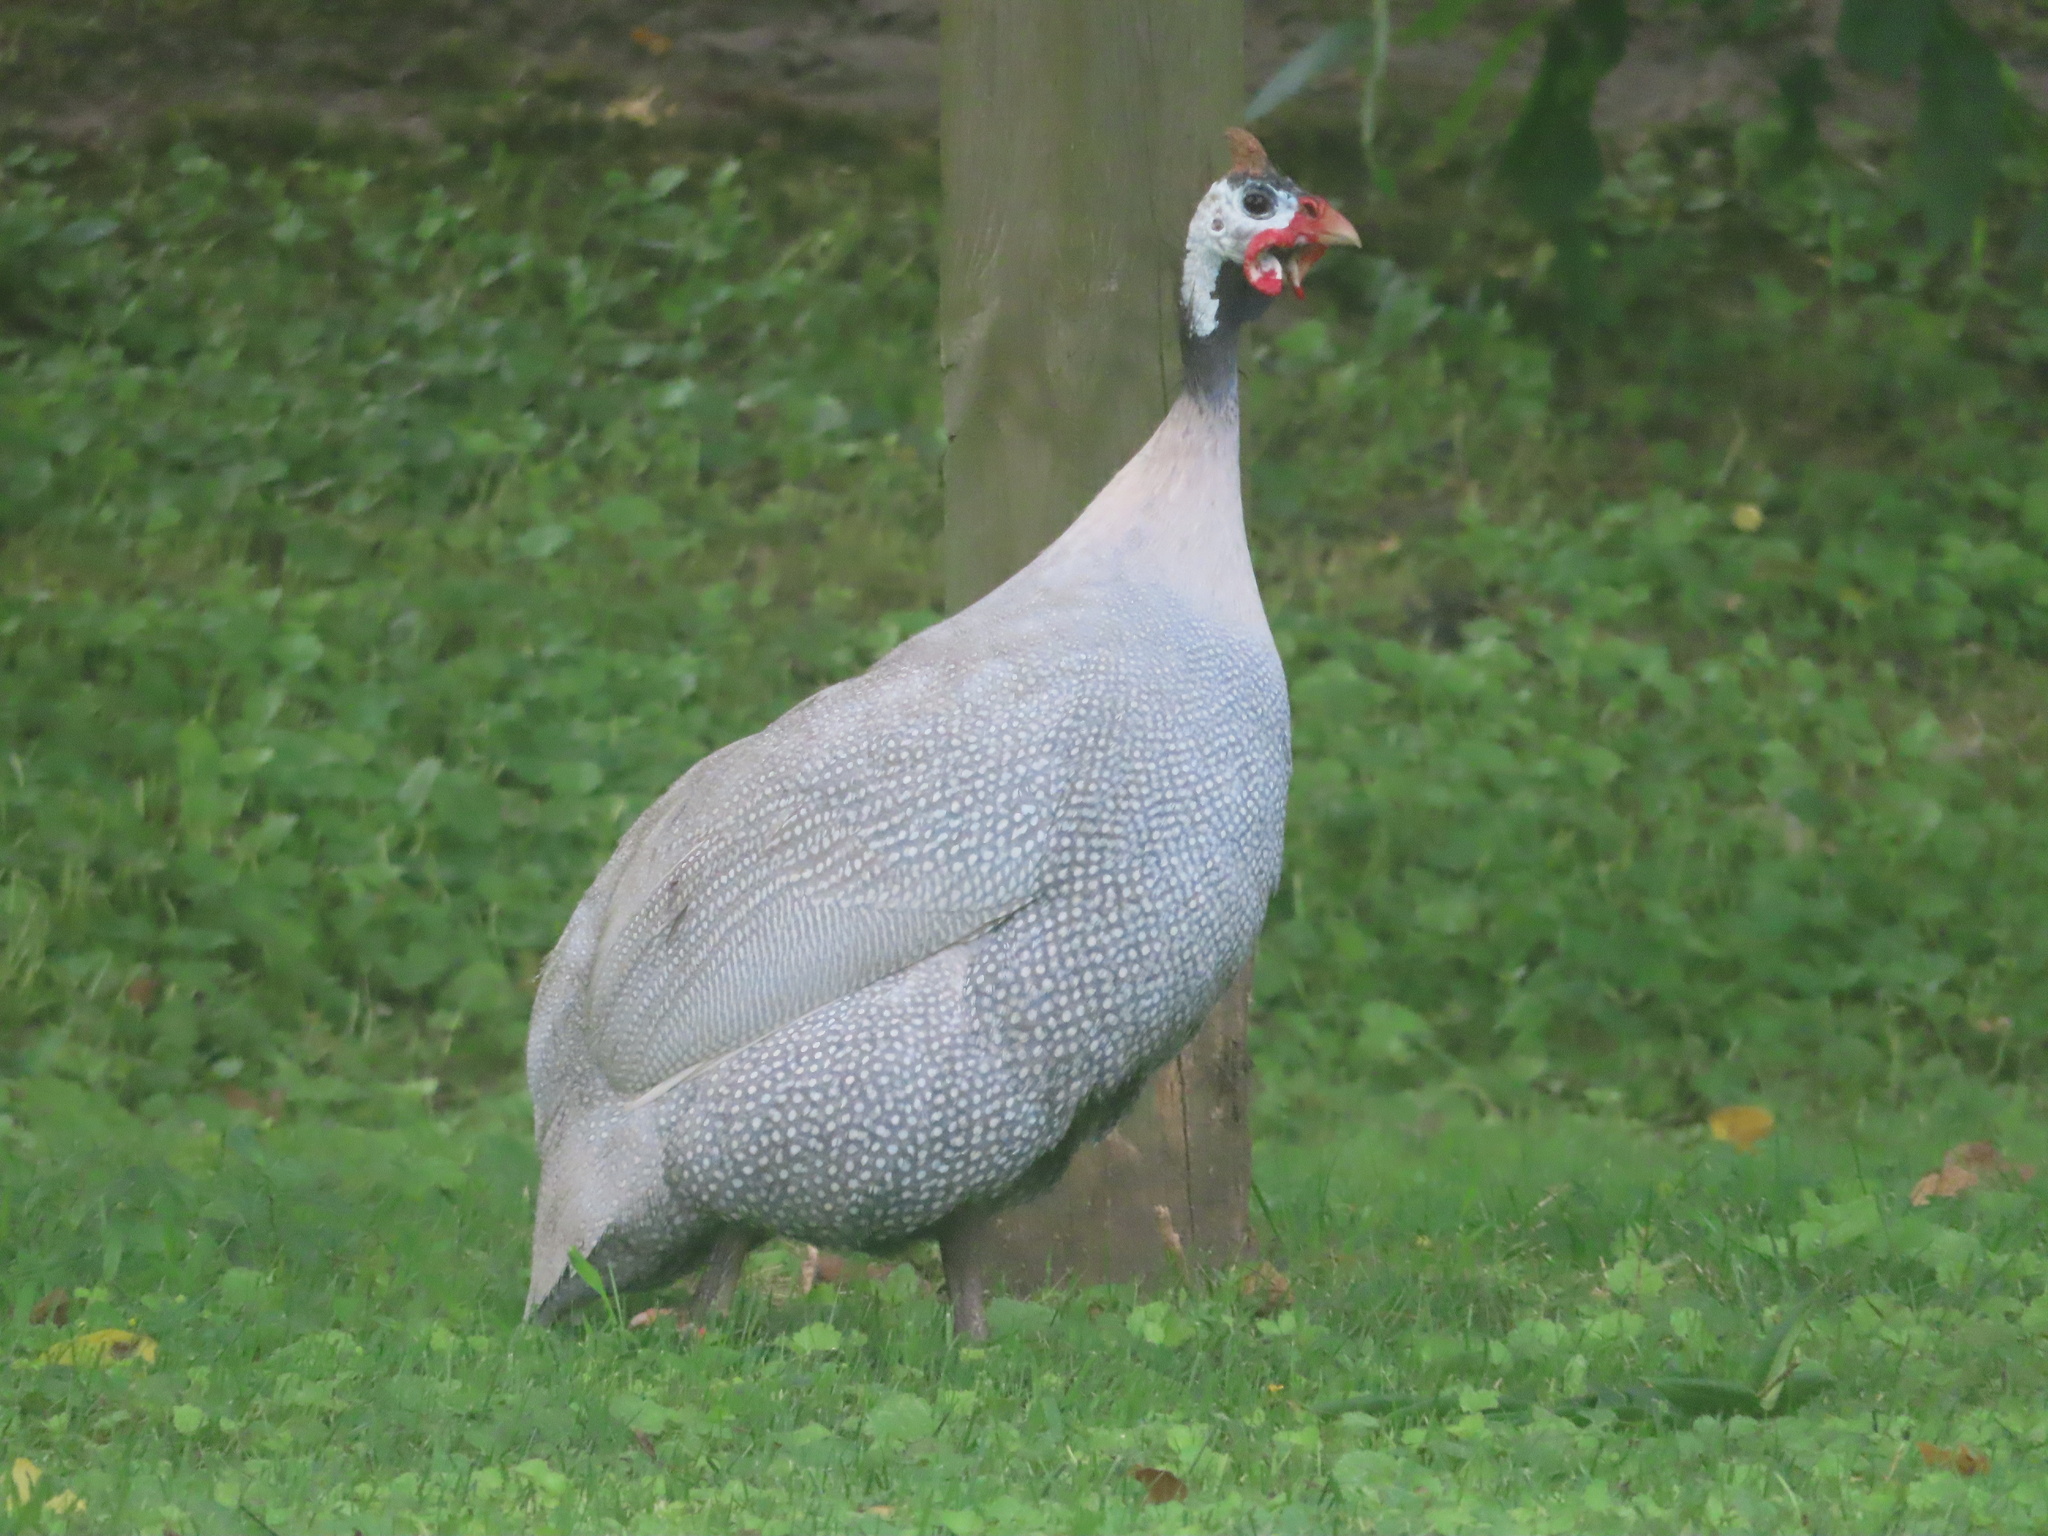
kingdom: Animalia
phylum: Chordata
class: Aves
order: Galliformes
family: Numididae
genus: Numida
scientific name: Numida meleagris
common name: Helmeted guineafowl
